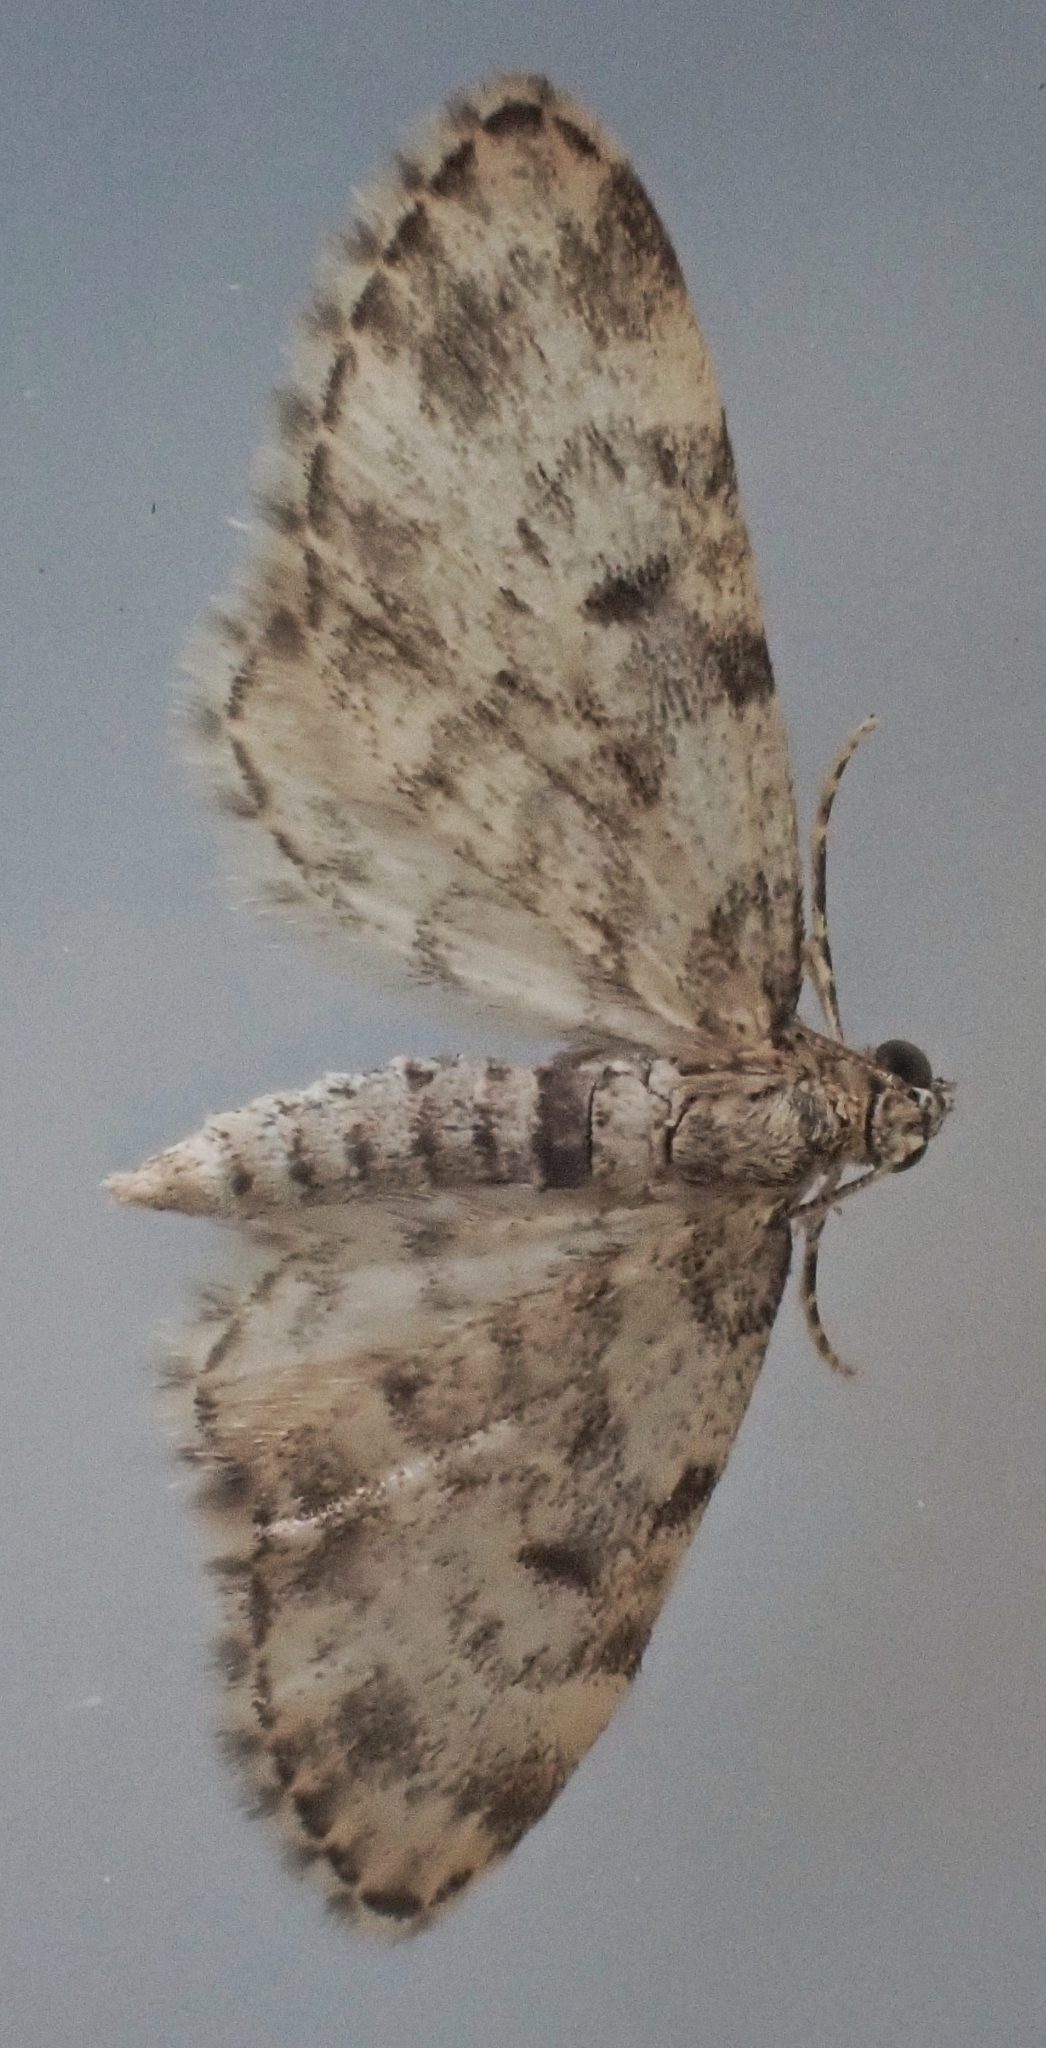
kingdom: Animalia
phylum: Arthropoda
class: Insecta
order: Lepidoptera
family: Geometridae
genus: Eupithecia
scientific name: Eupithecia tantillaria
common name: Dwarf pug
